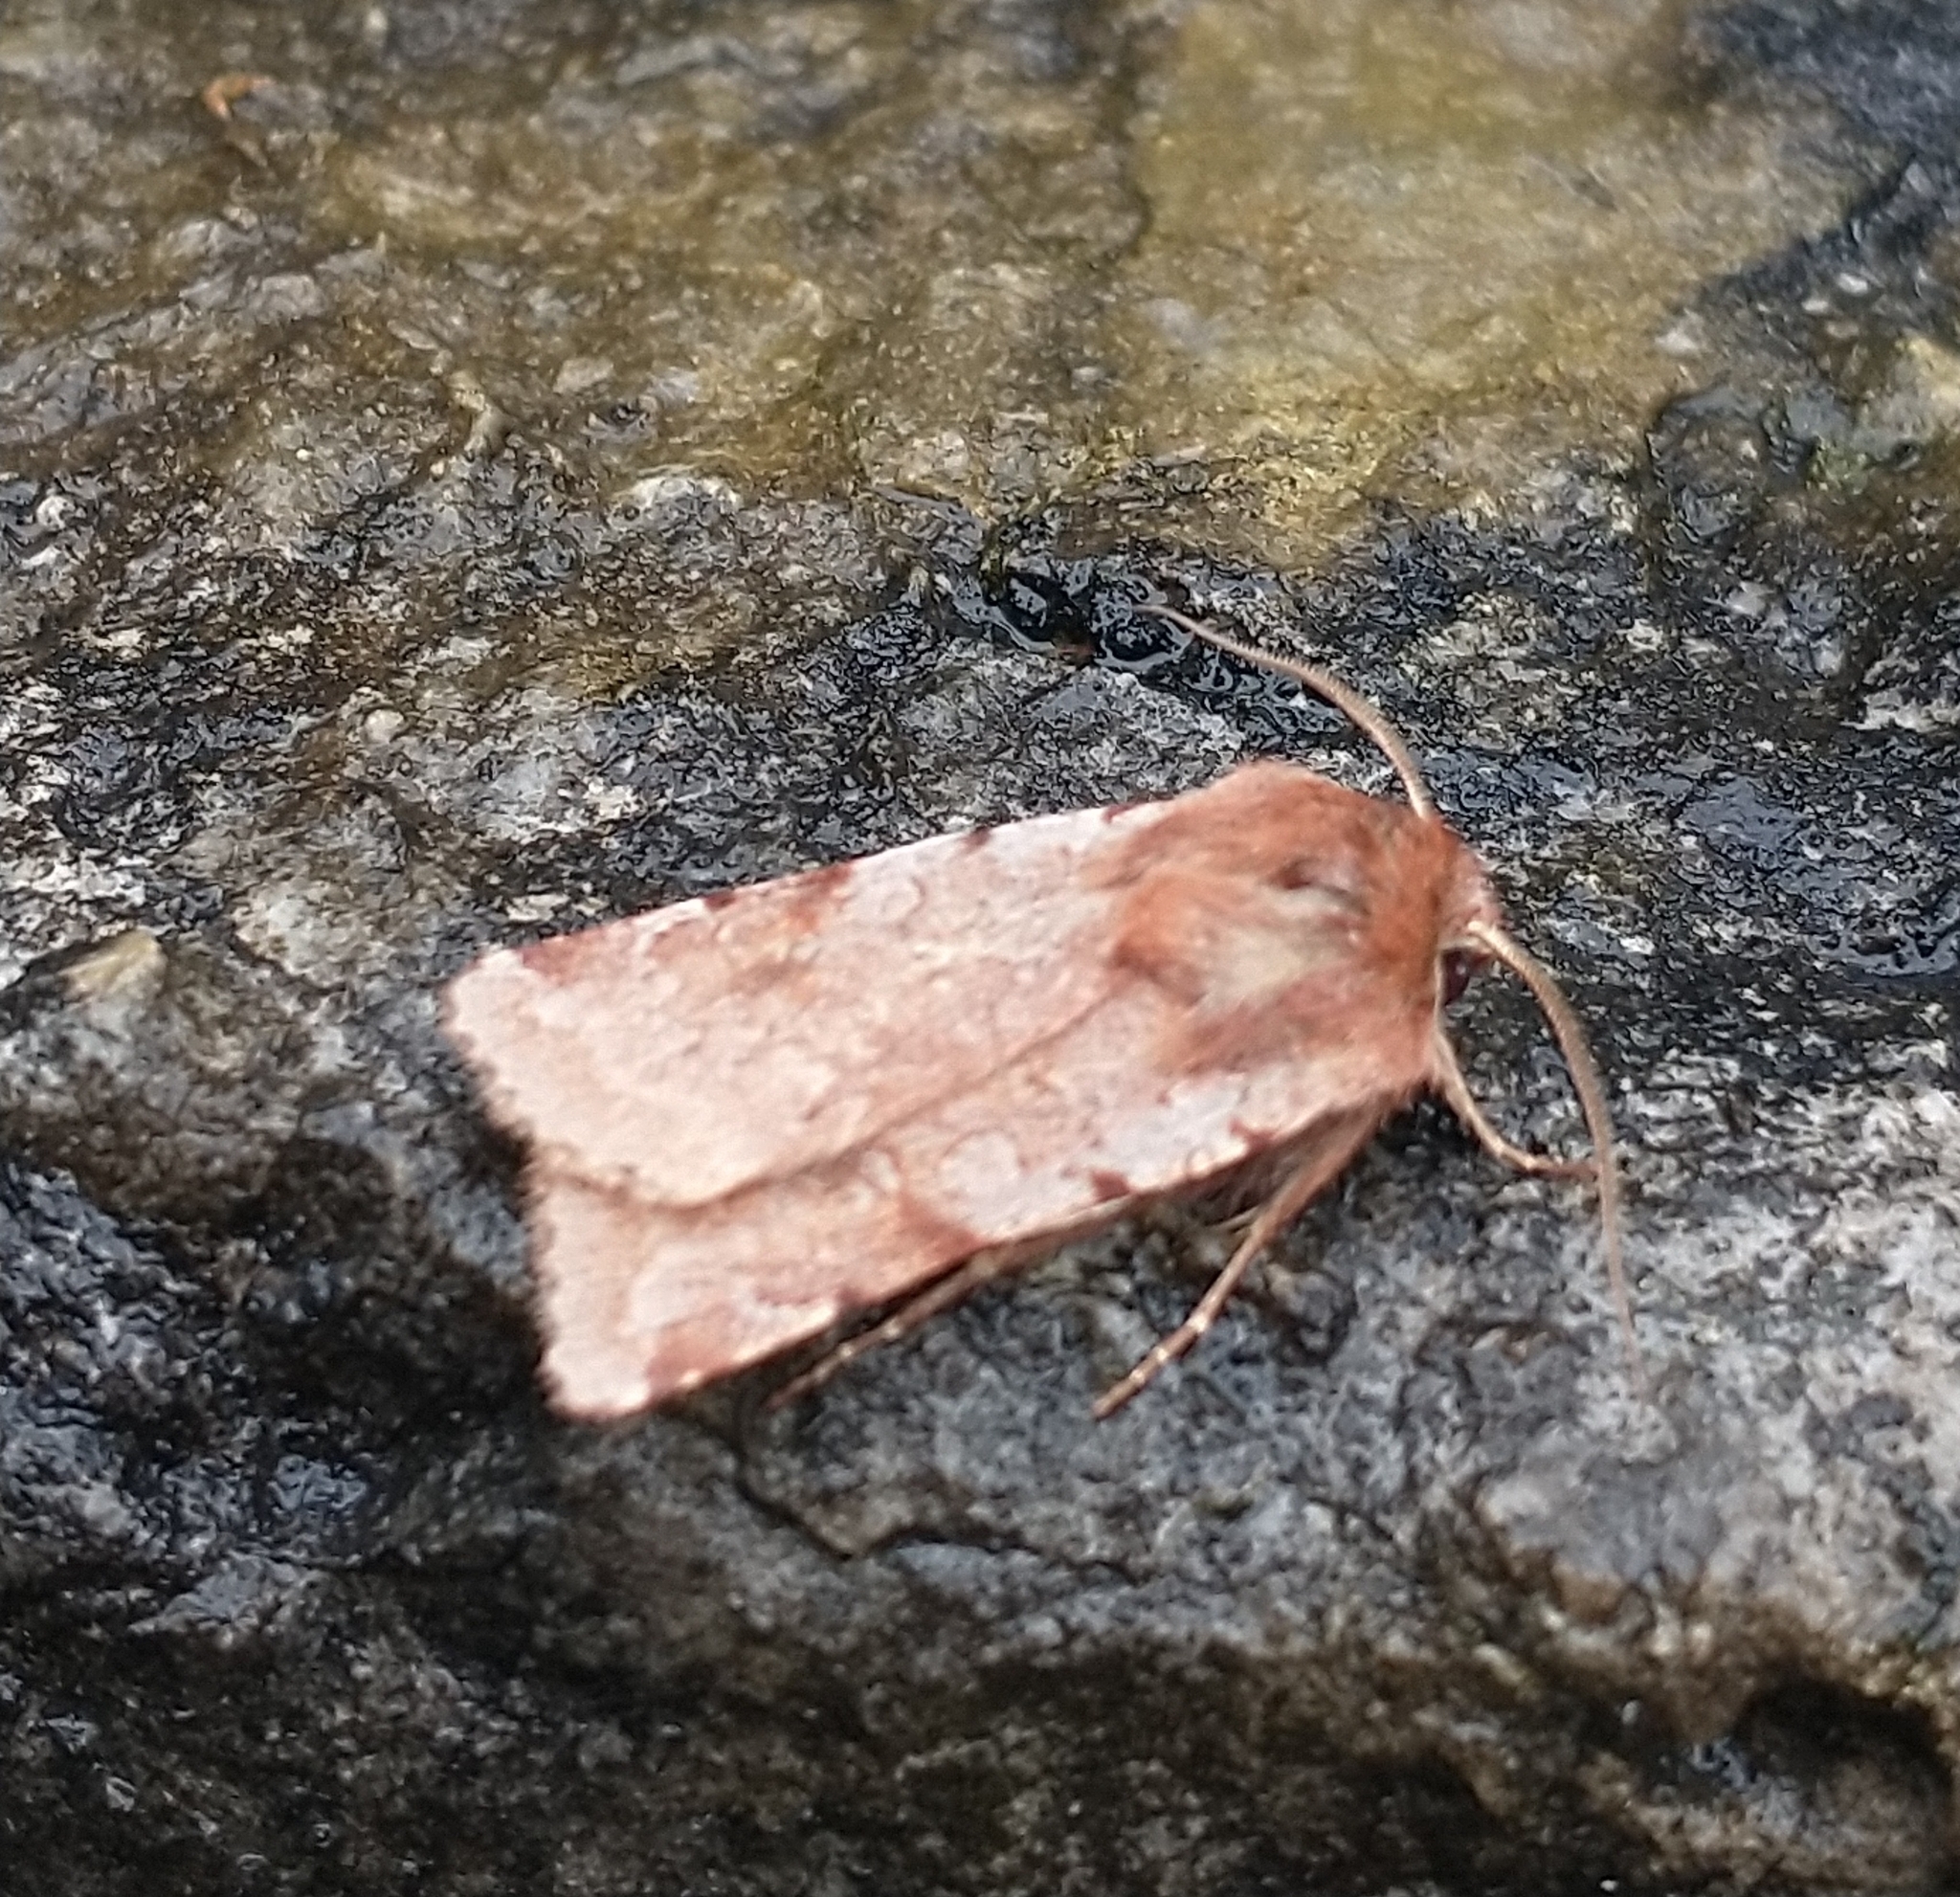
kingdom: Animalia
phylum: Arthropoda
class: Insecta
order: Lepidoptera
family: Noctuidae
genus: Cerastis
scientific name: Cerastis rubricosa
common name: Red chestnut
